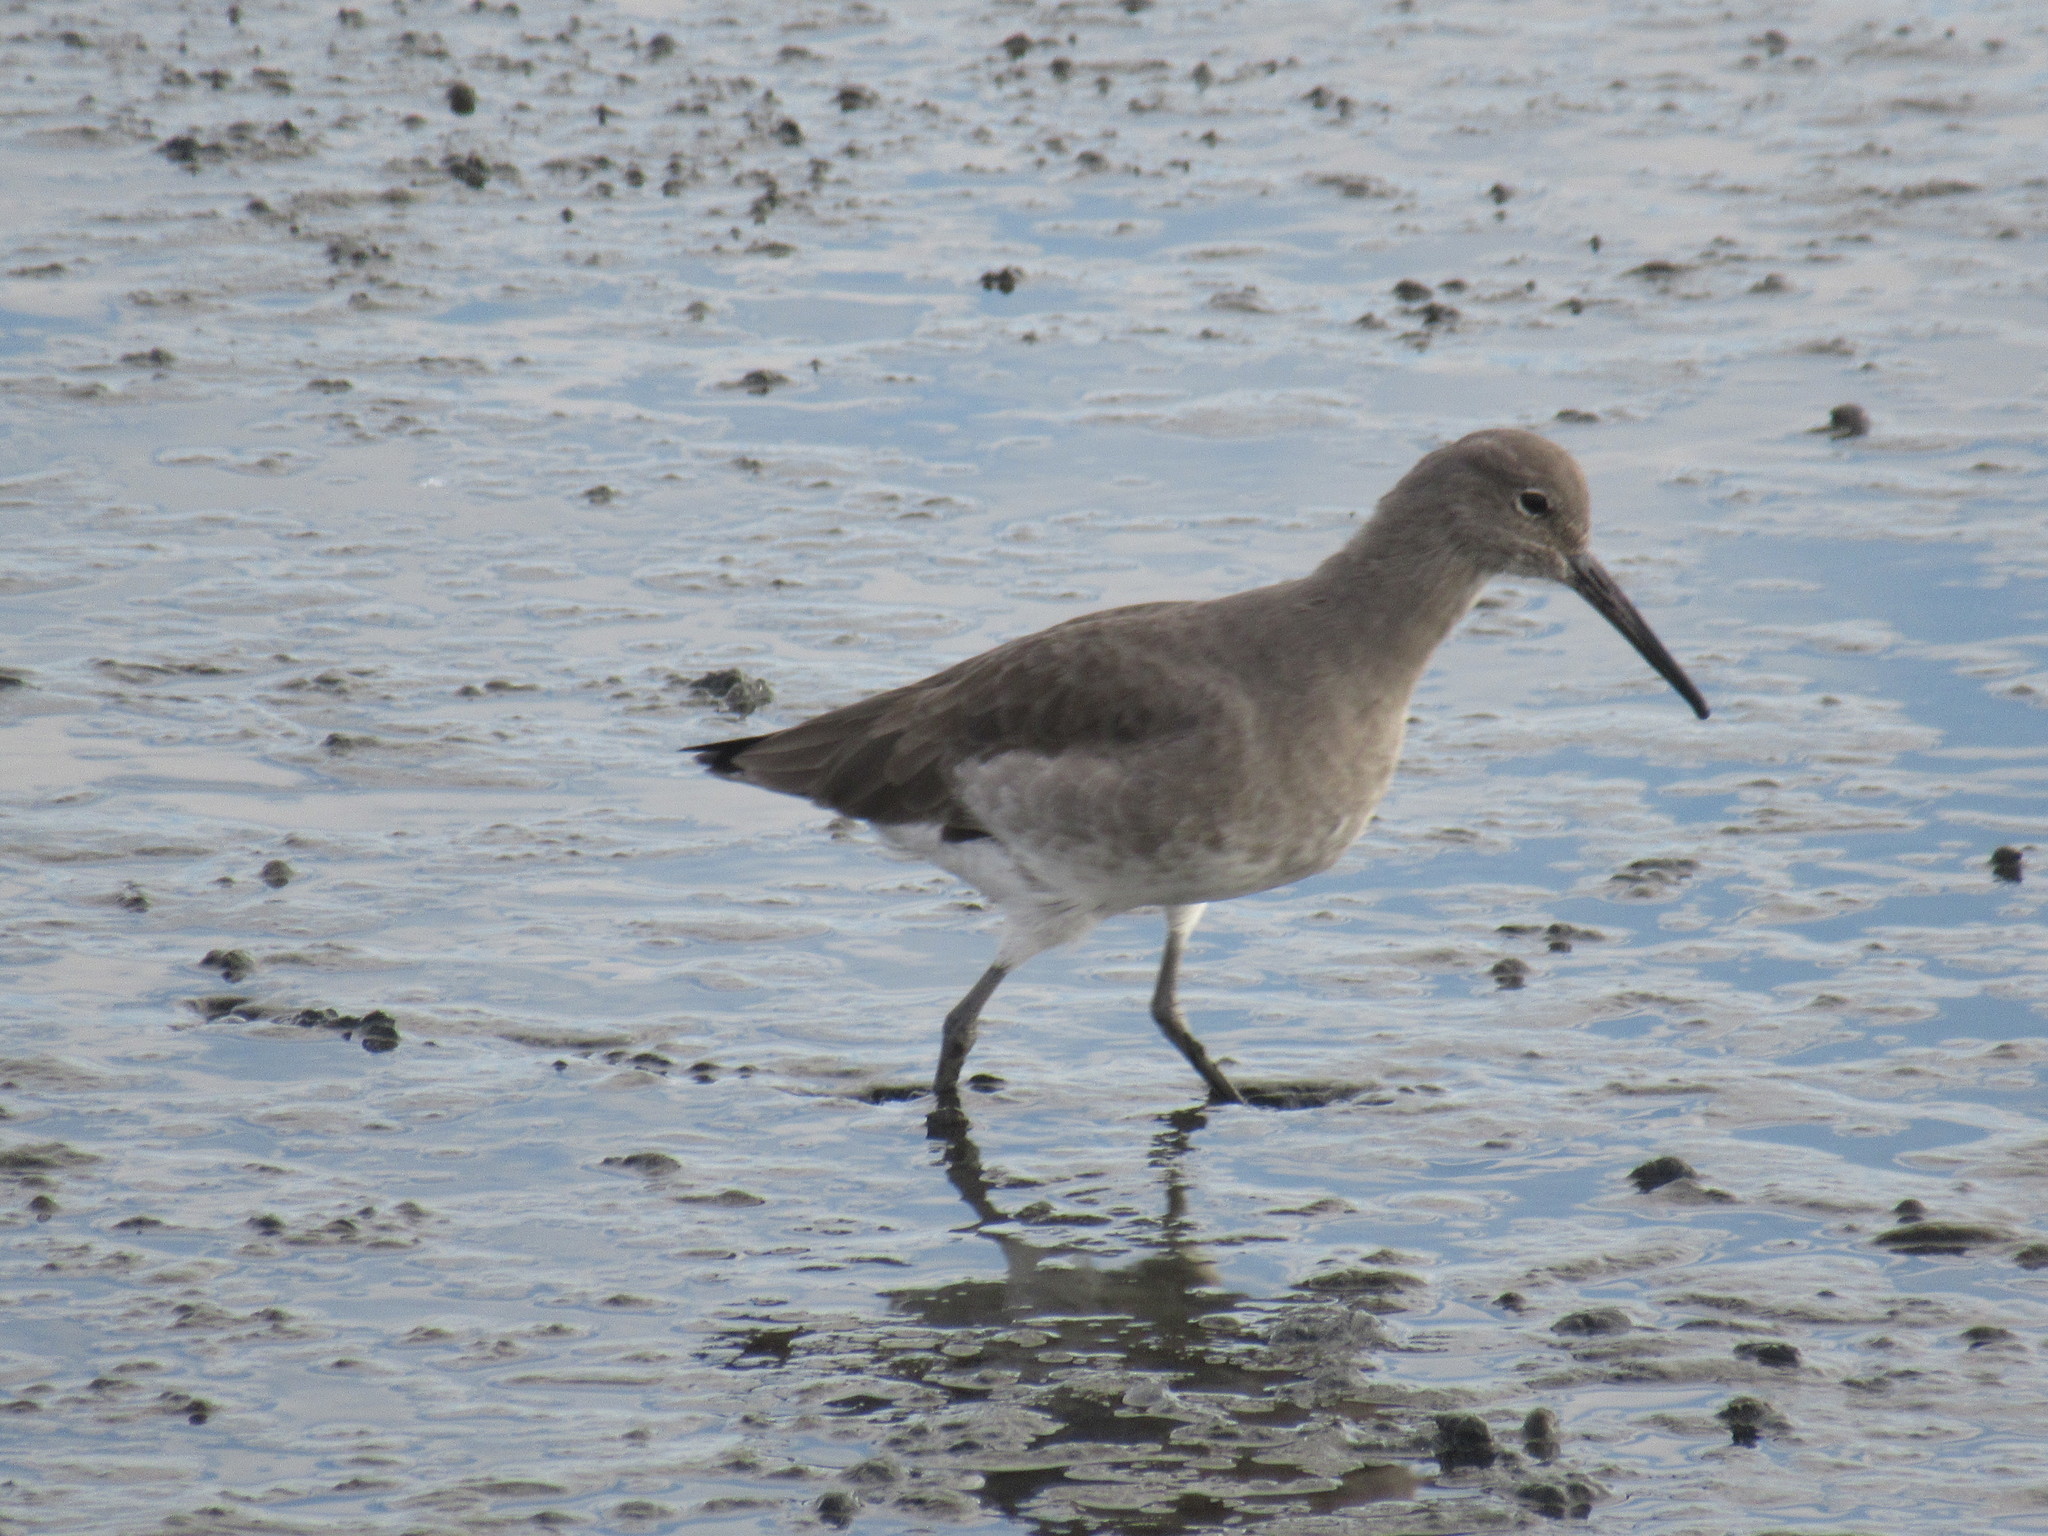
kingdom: Animalia
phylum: Chordata
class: Aves
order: Charadriiformes
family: Scolopacidae
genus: Tringa
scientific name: Tringa semipalmata
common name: Willet
